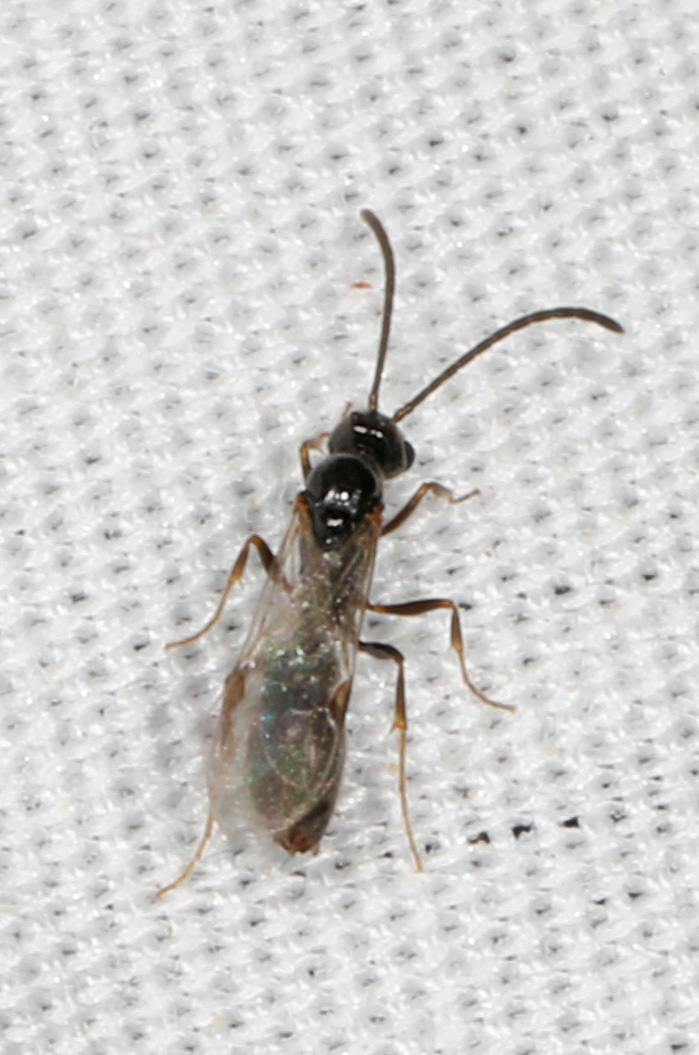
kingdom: Animalia
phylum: Arthropoda
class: Insecta
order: Hymenoptera
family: Formicidae
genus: Ponera
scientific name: Ponera pennsylvanica
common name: Pennsylvania ponera
